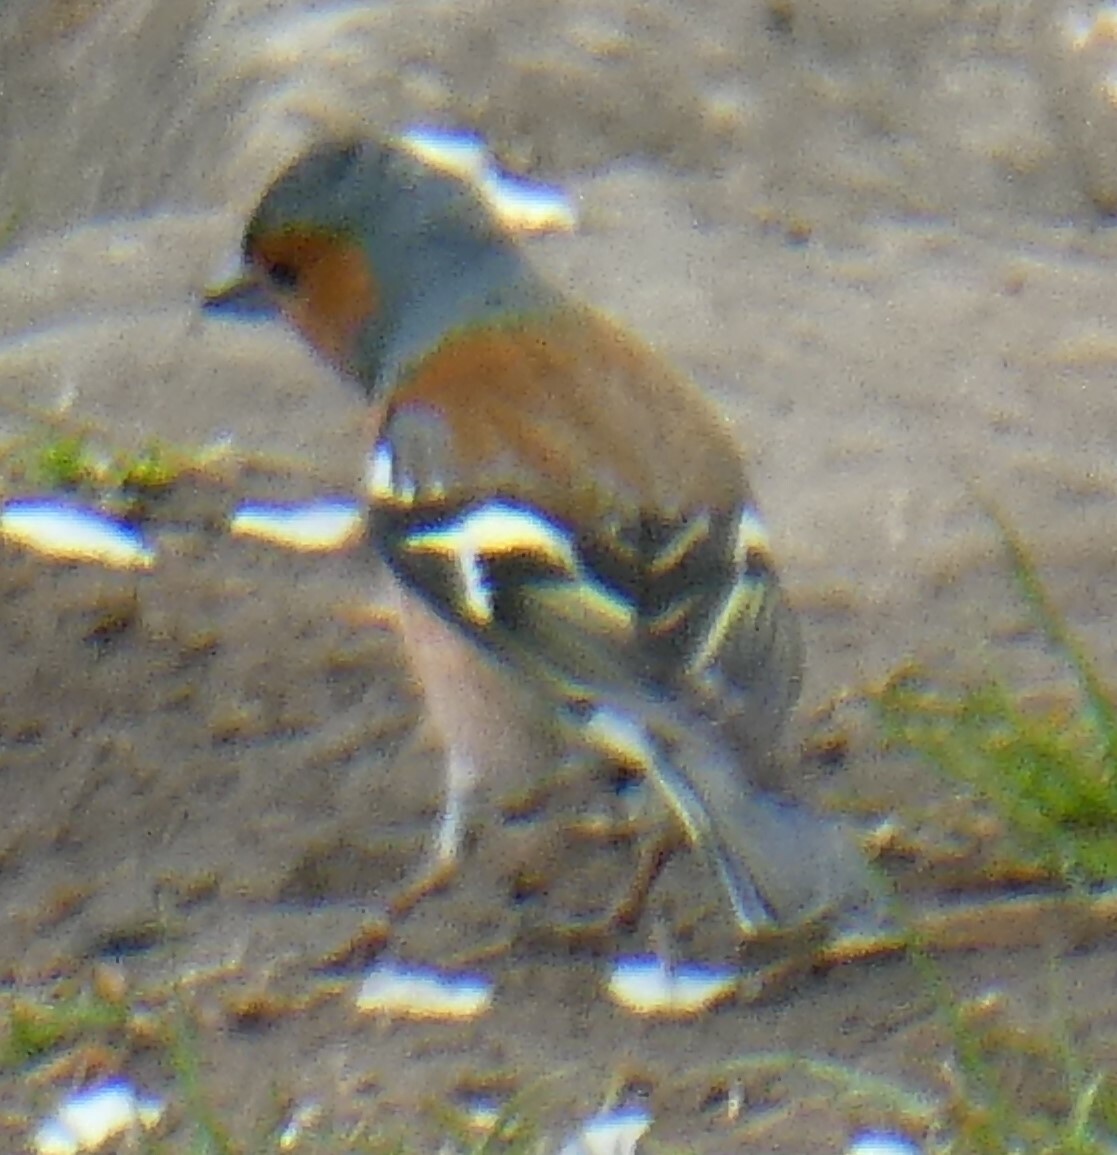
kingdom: Animalia
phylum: Chordata
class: Aves
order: Passeriformes
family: Fringillidae
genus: Fringilla
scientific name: Fringilla coelebs
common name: Common chaffinch
